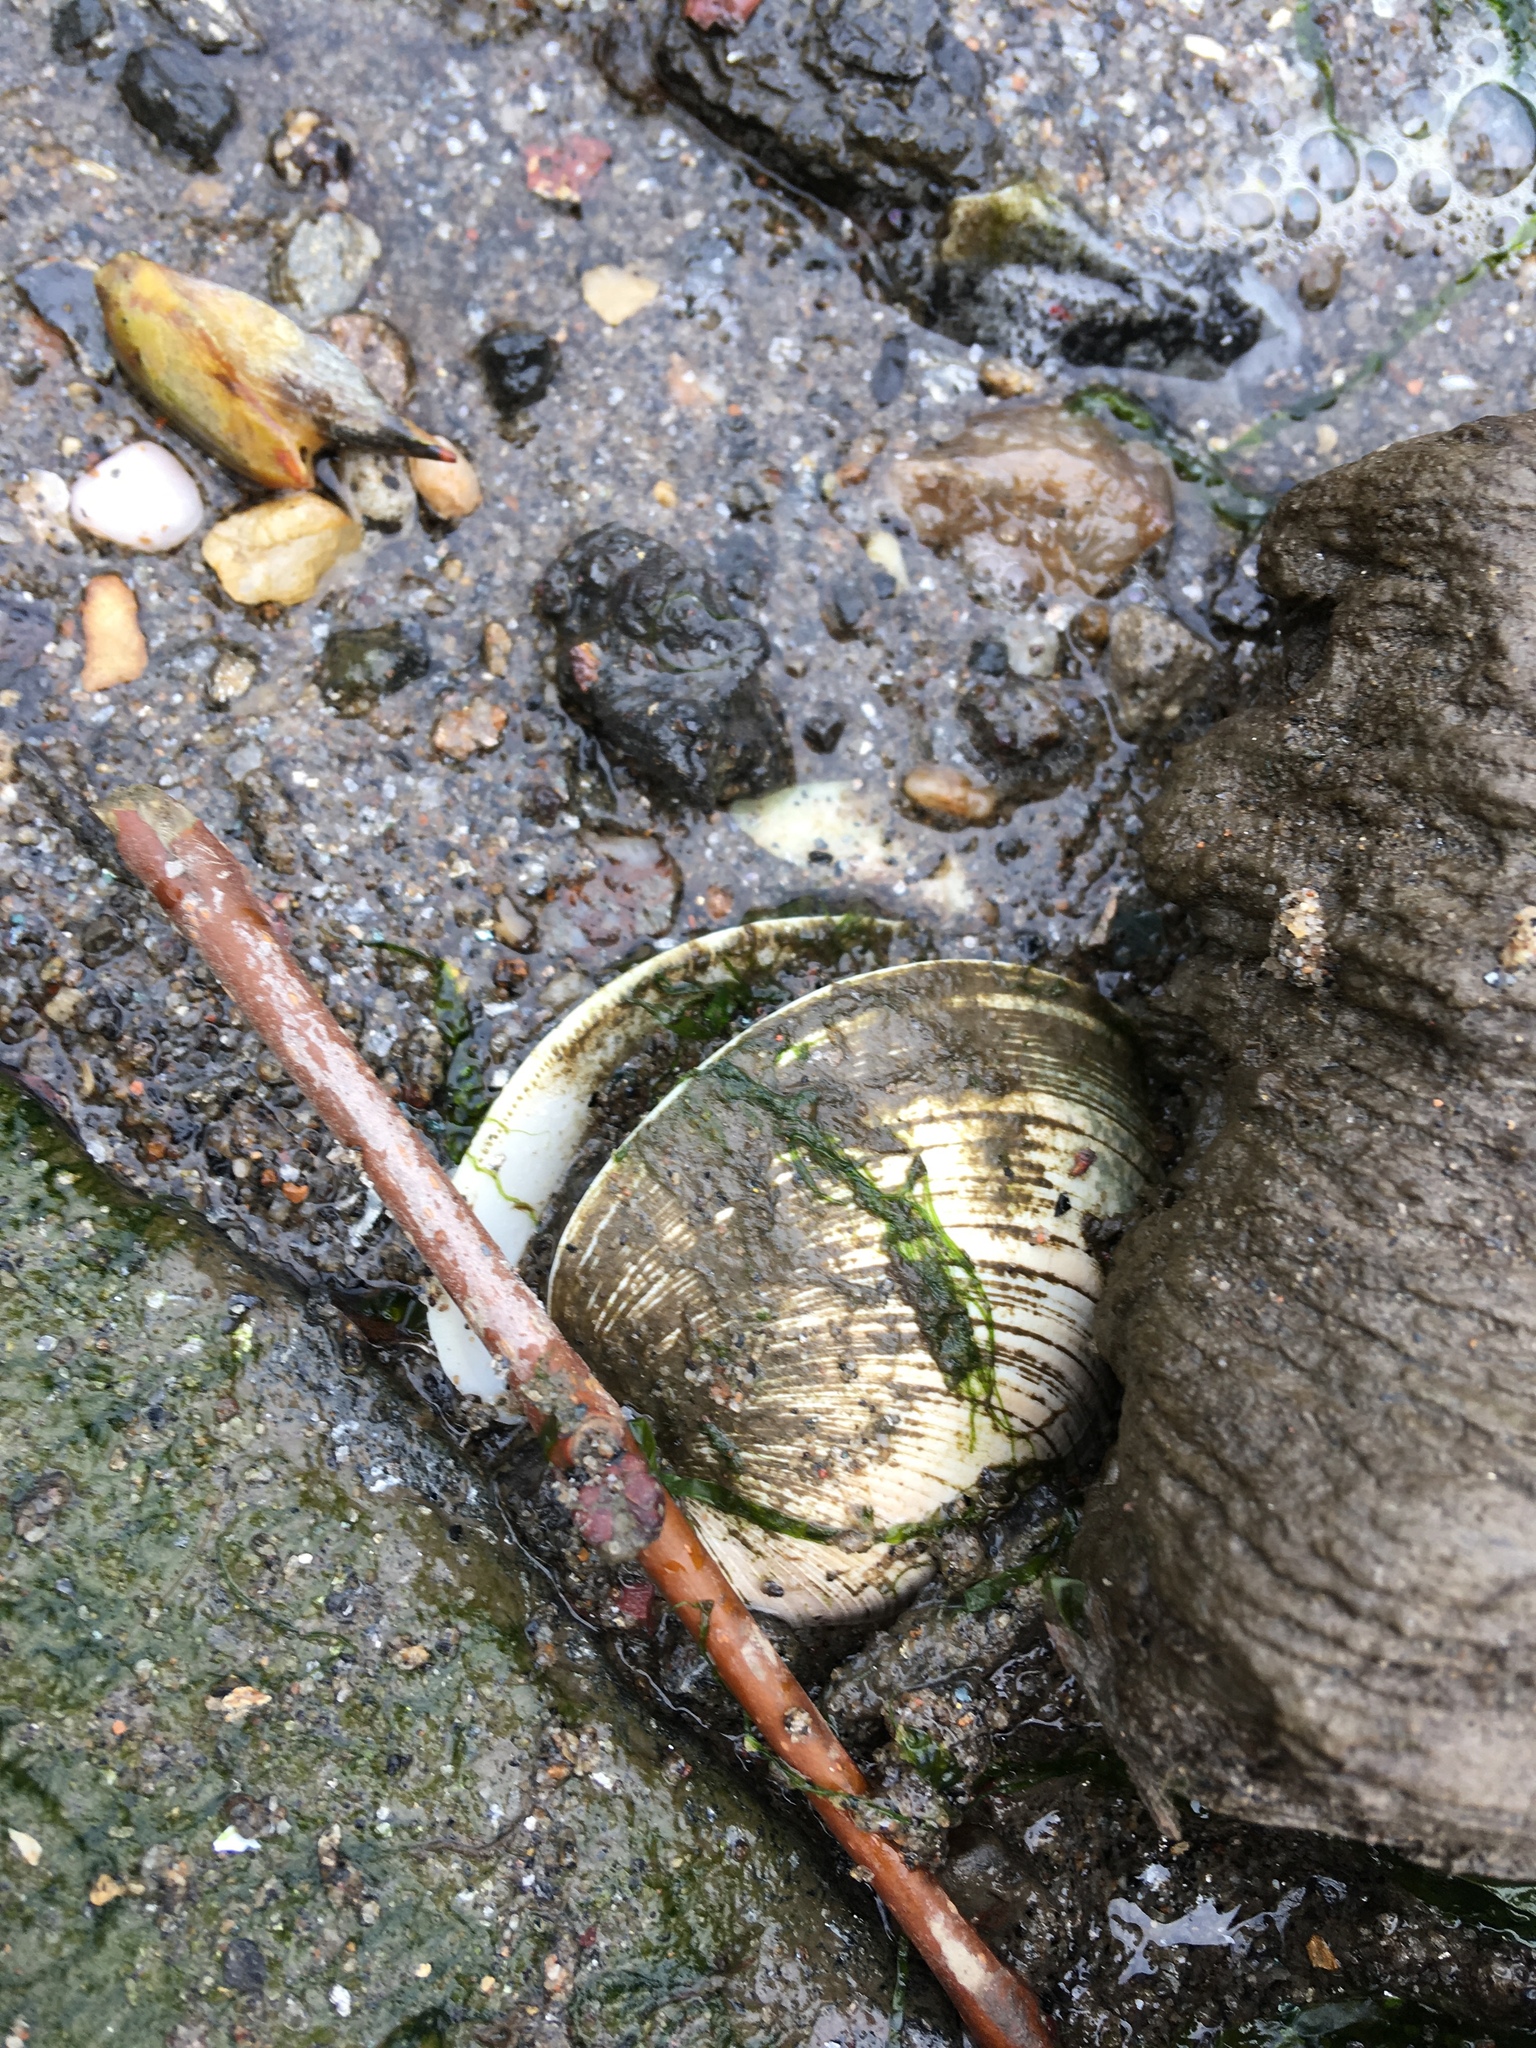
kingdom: Animalia
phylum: Mollusca
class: Bivalvia
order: Venerida
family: Veneridae
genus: Mercenaria
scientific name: Mercenaria mercenaria
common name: American hard-shelled clam
